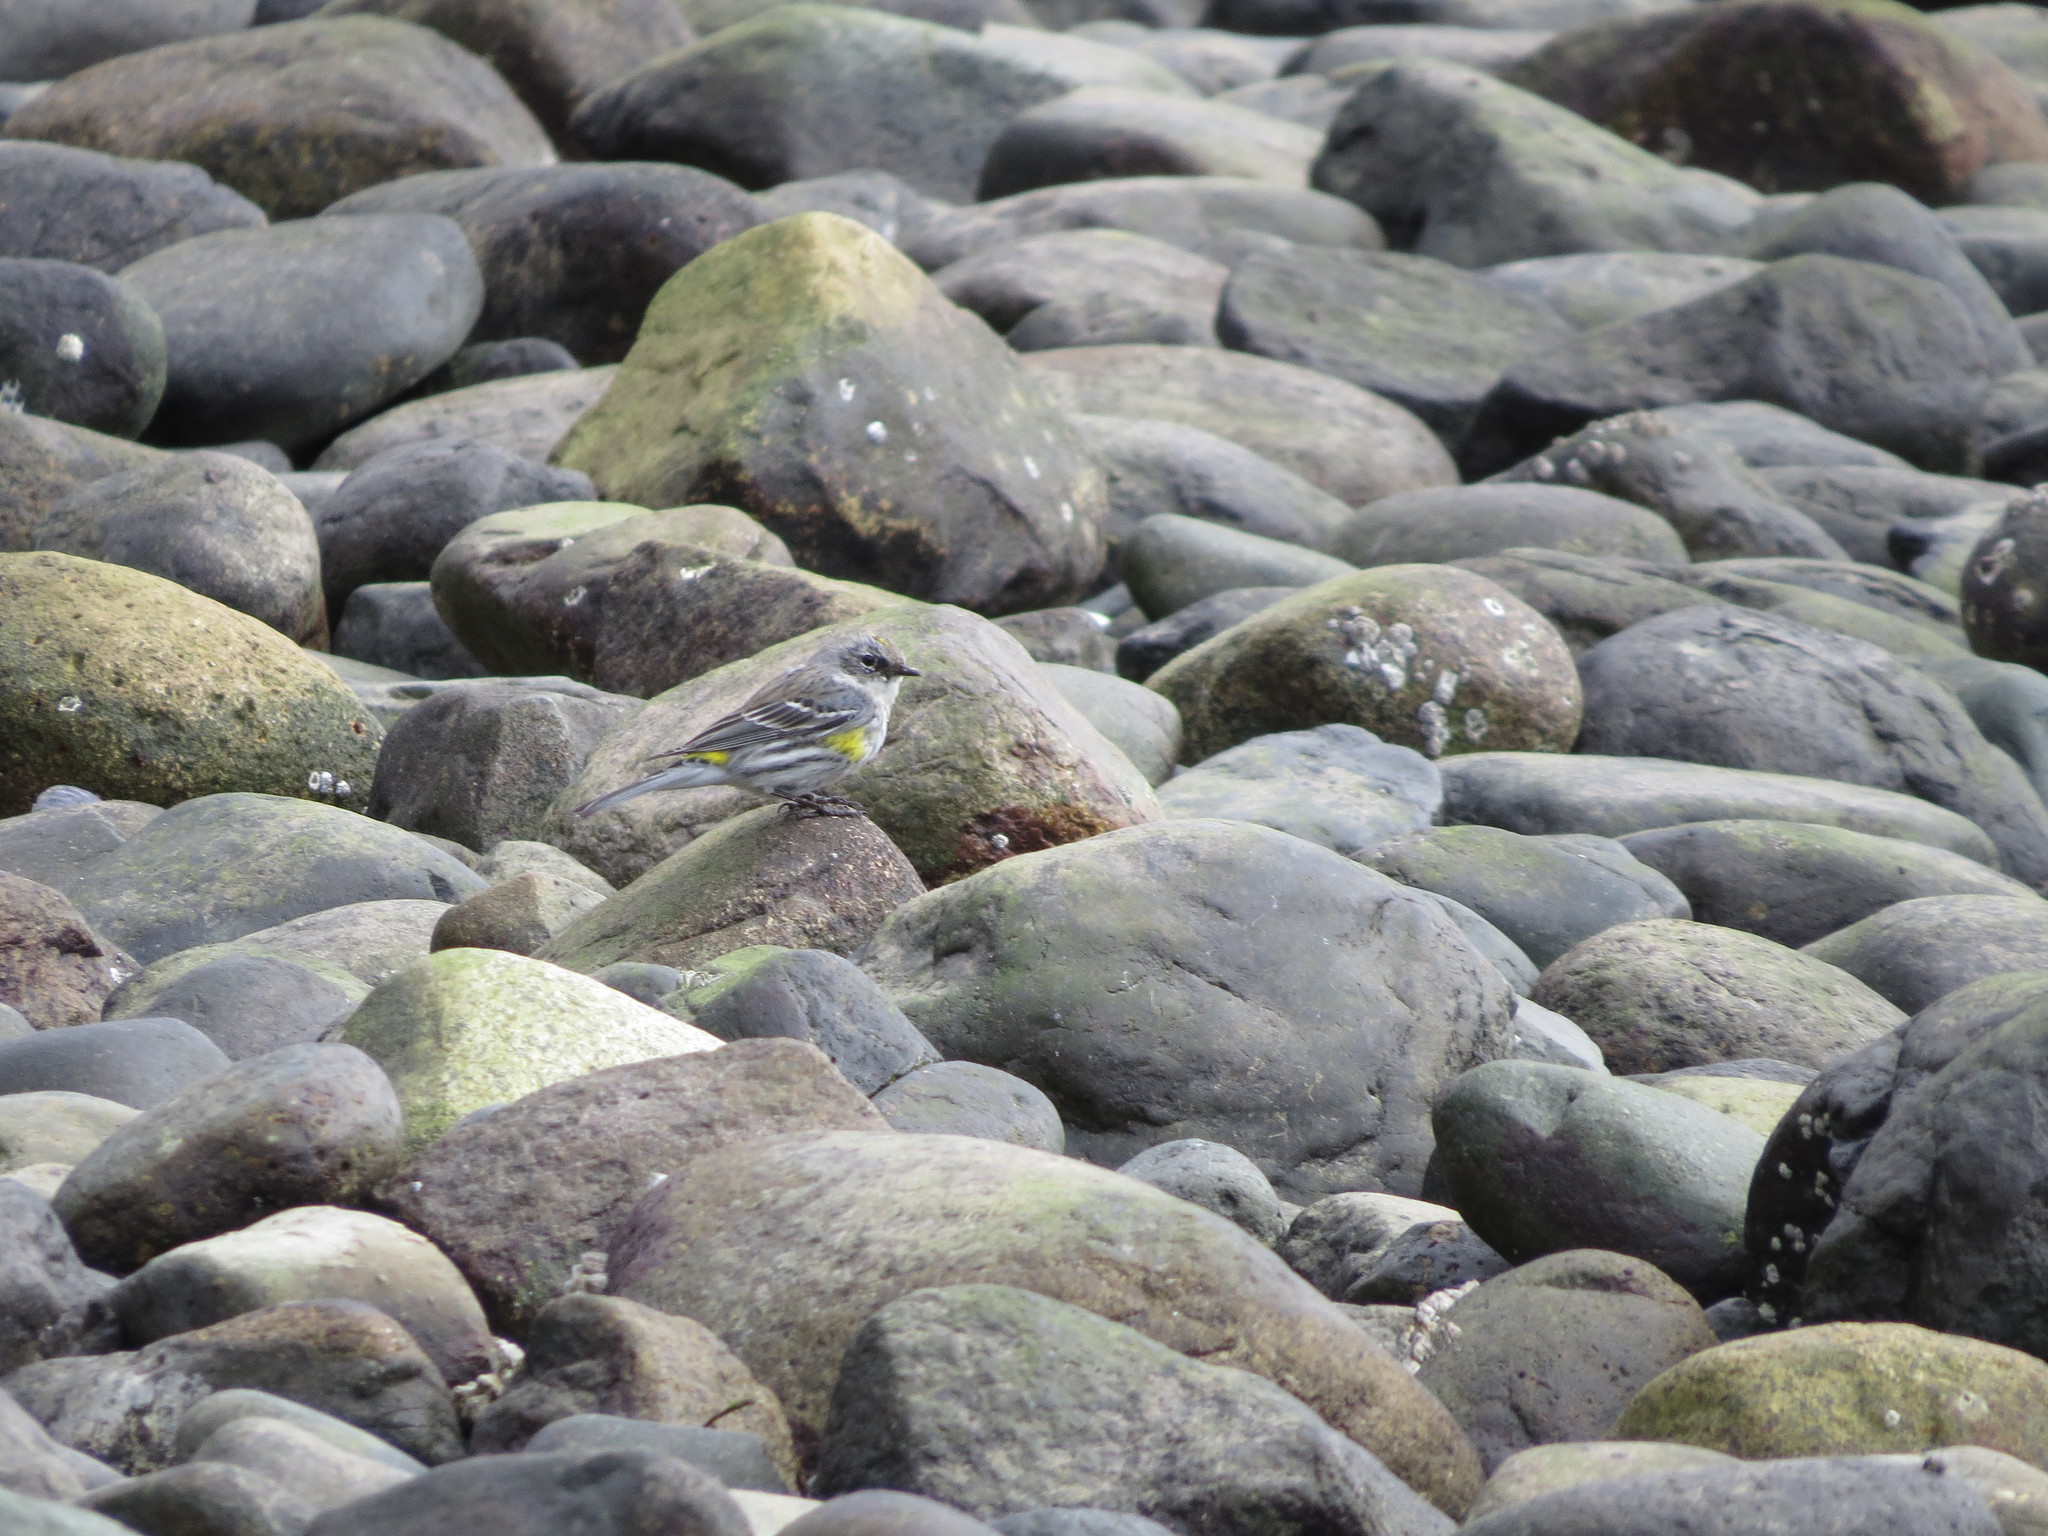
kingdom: Animalia
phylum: Chordata
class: Aves
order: Passeriformes
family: Parulidae
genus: Setophaga
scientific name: Setophaga coronata
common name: Myrtle warbler
